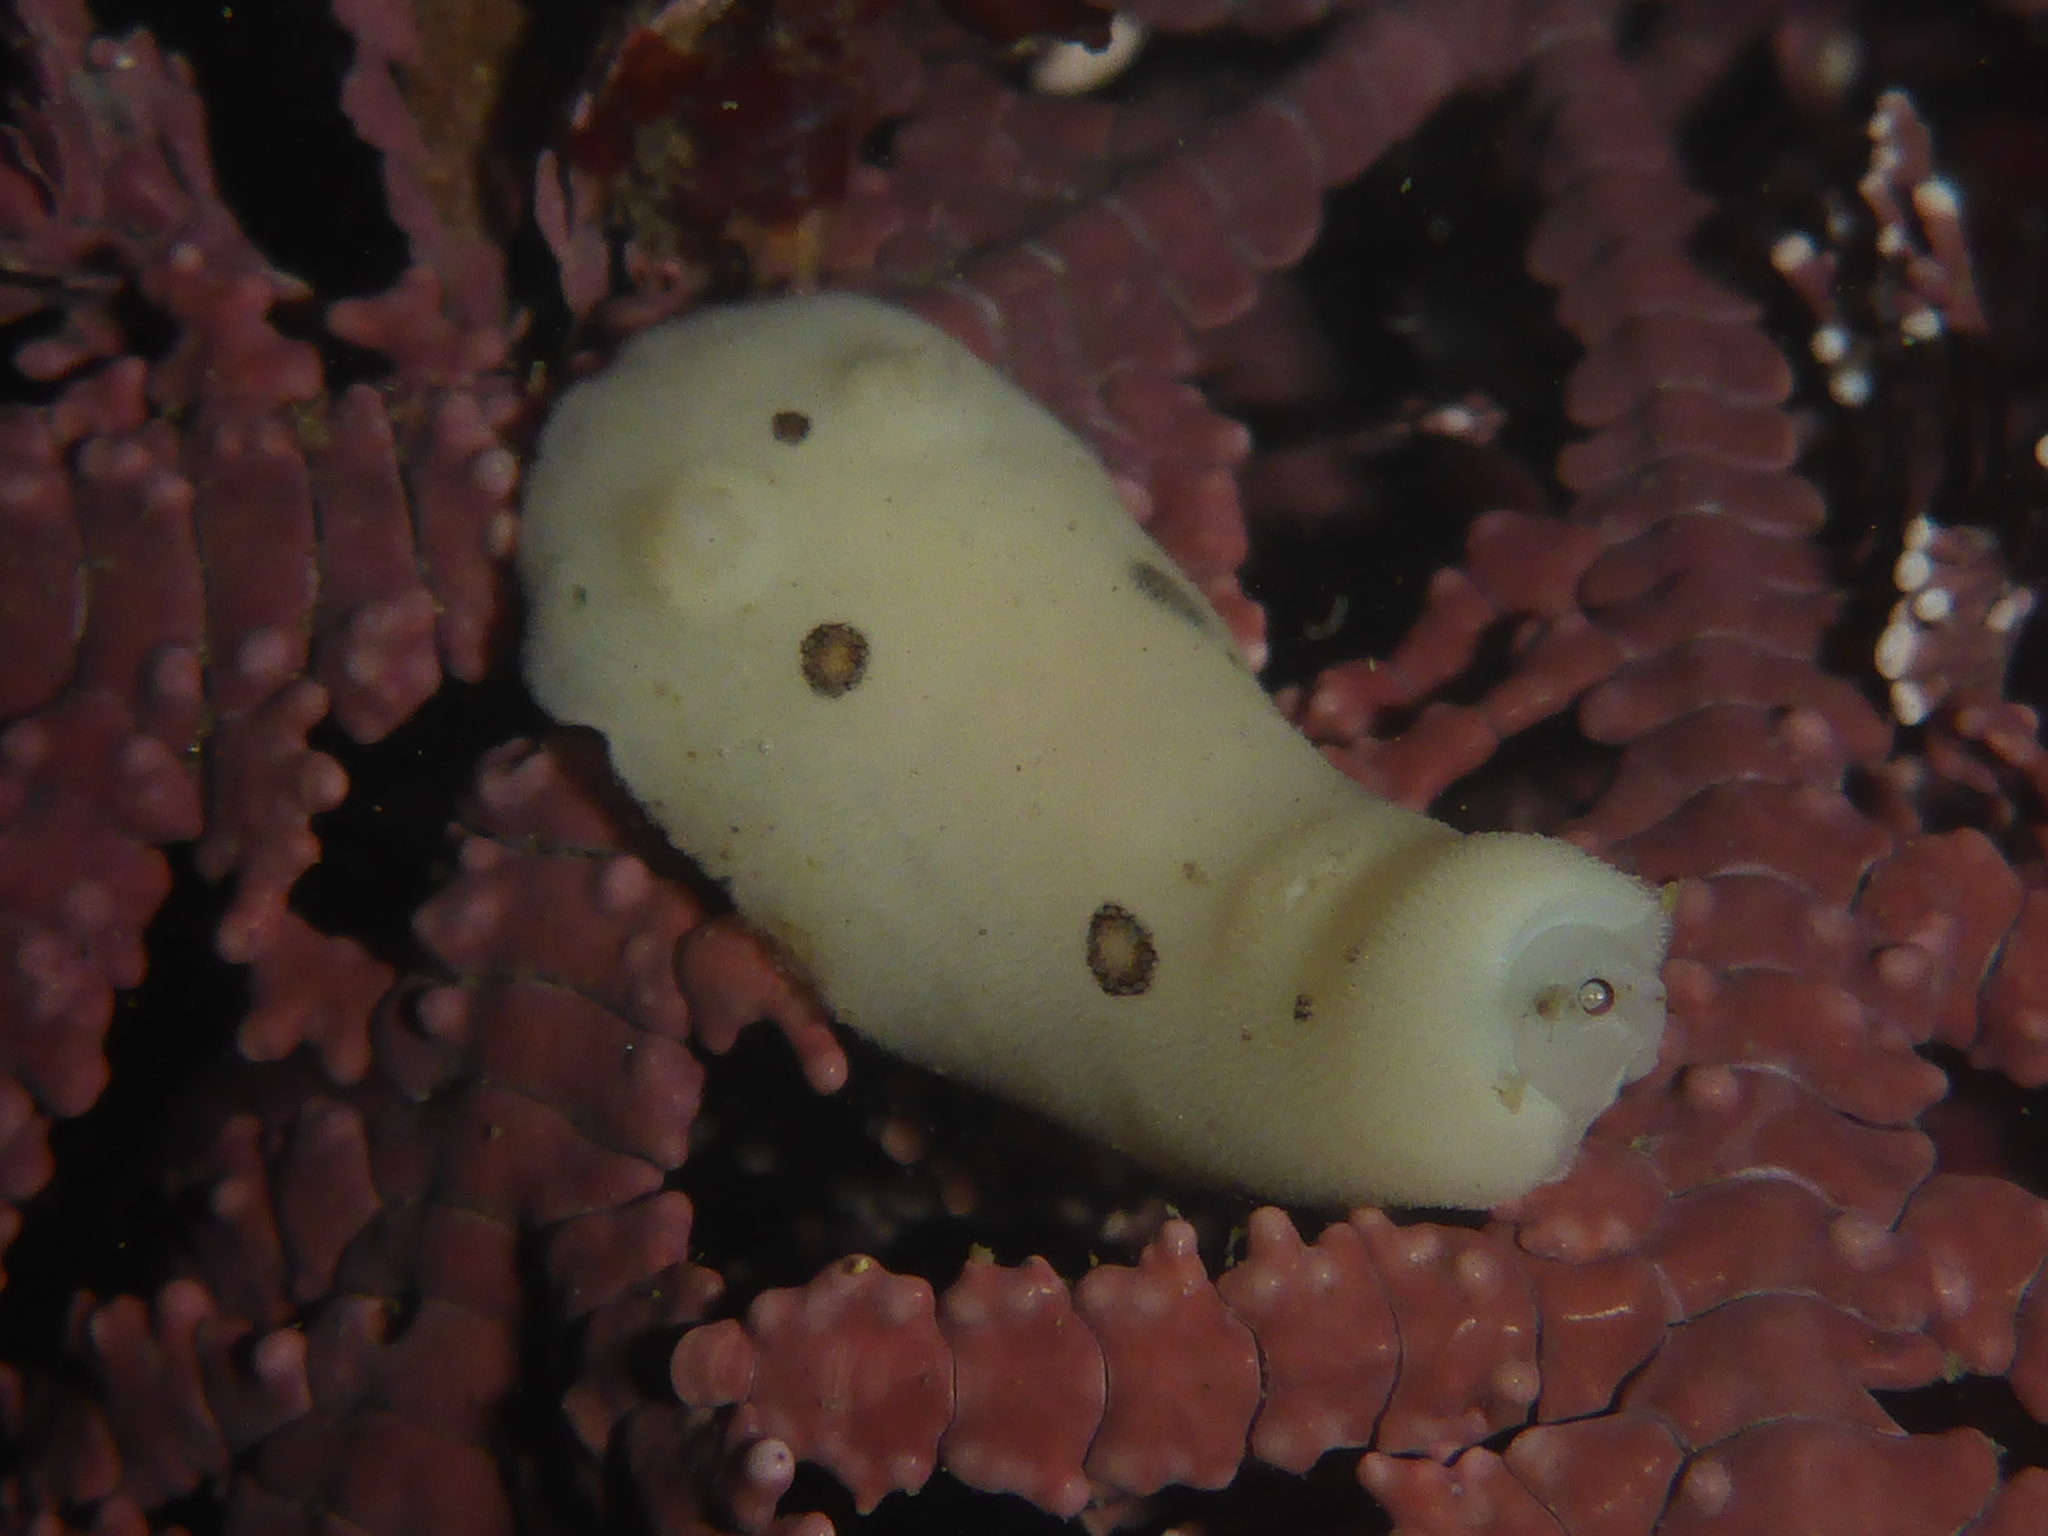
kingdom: Animalia
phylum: Mollusca
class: Gastropoda
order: Nudibranchia
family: Discodorididae
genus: Diaulula
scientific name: Diaulula sandiegensis
